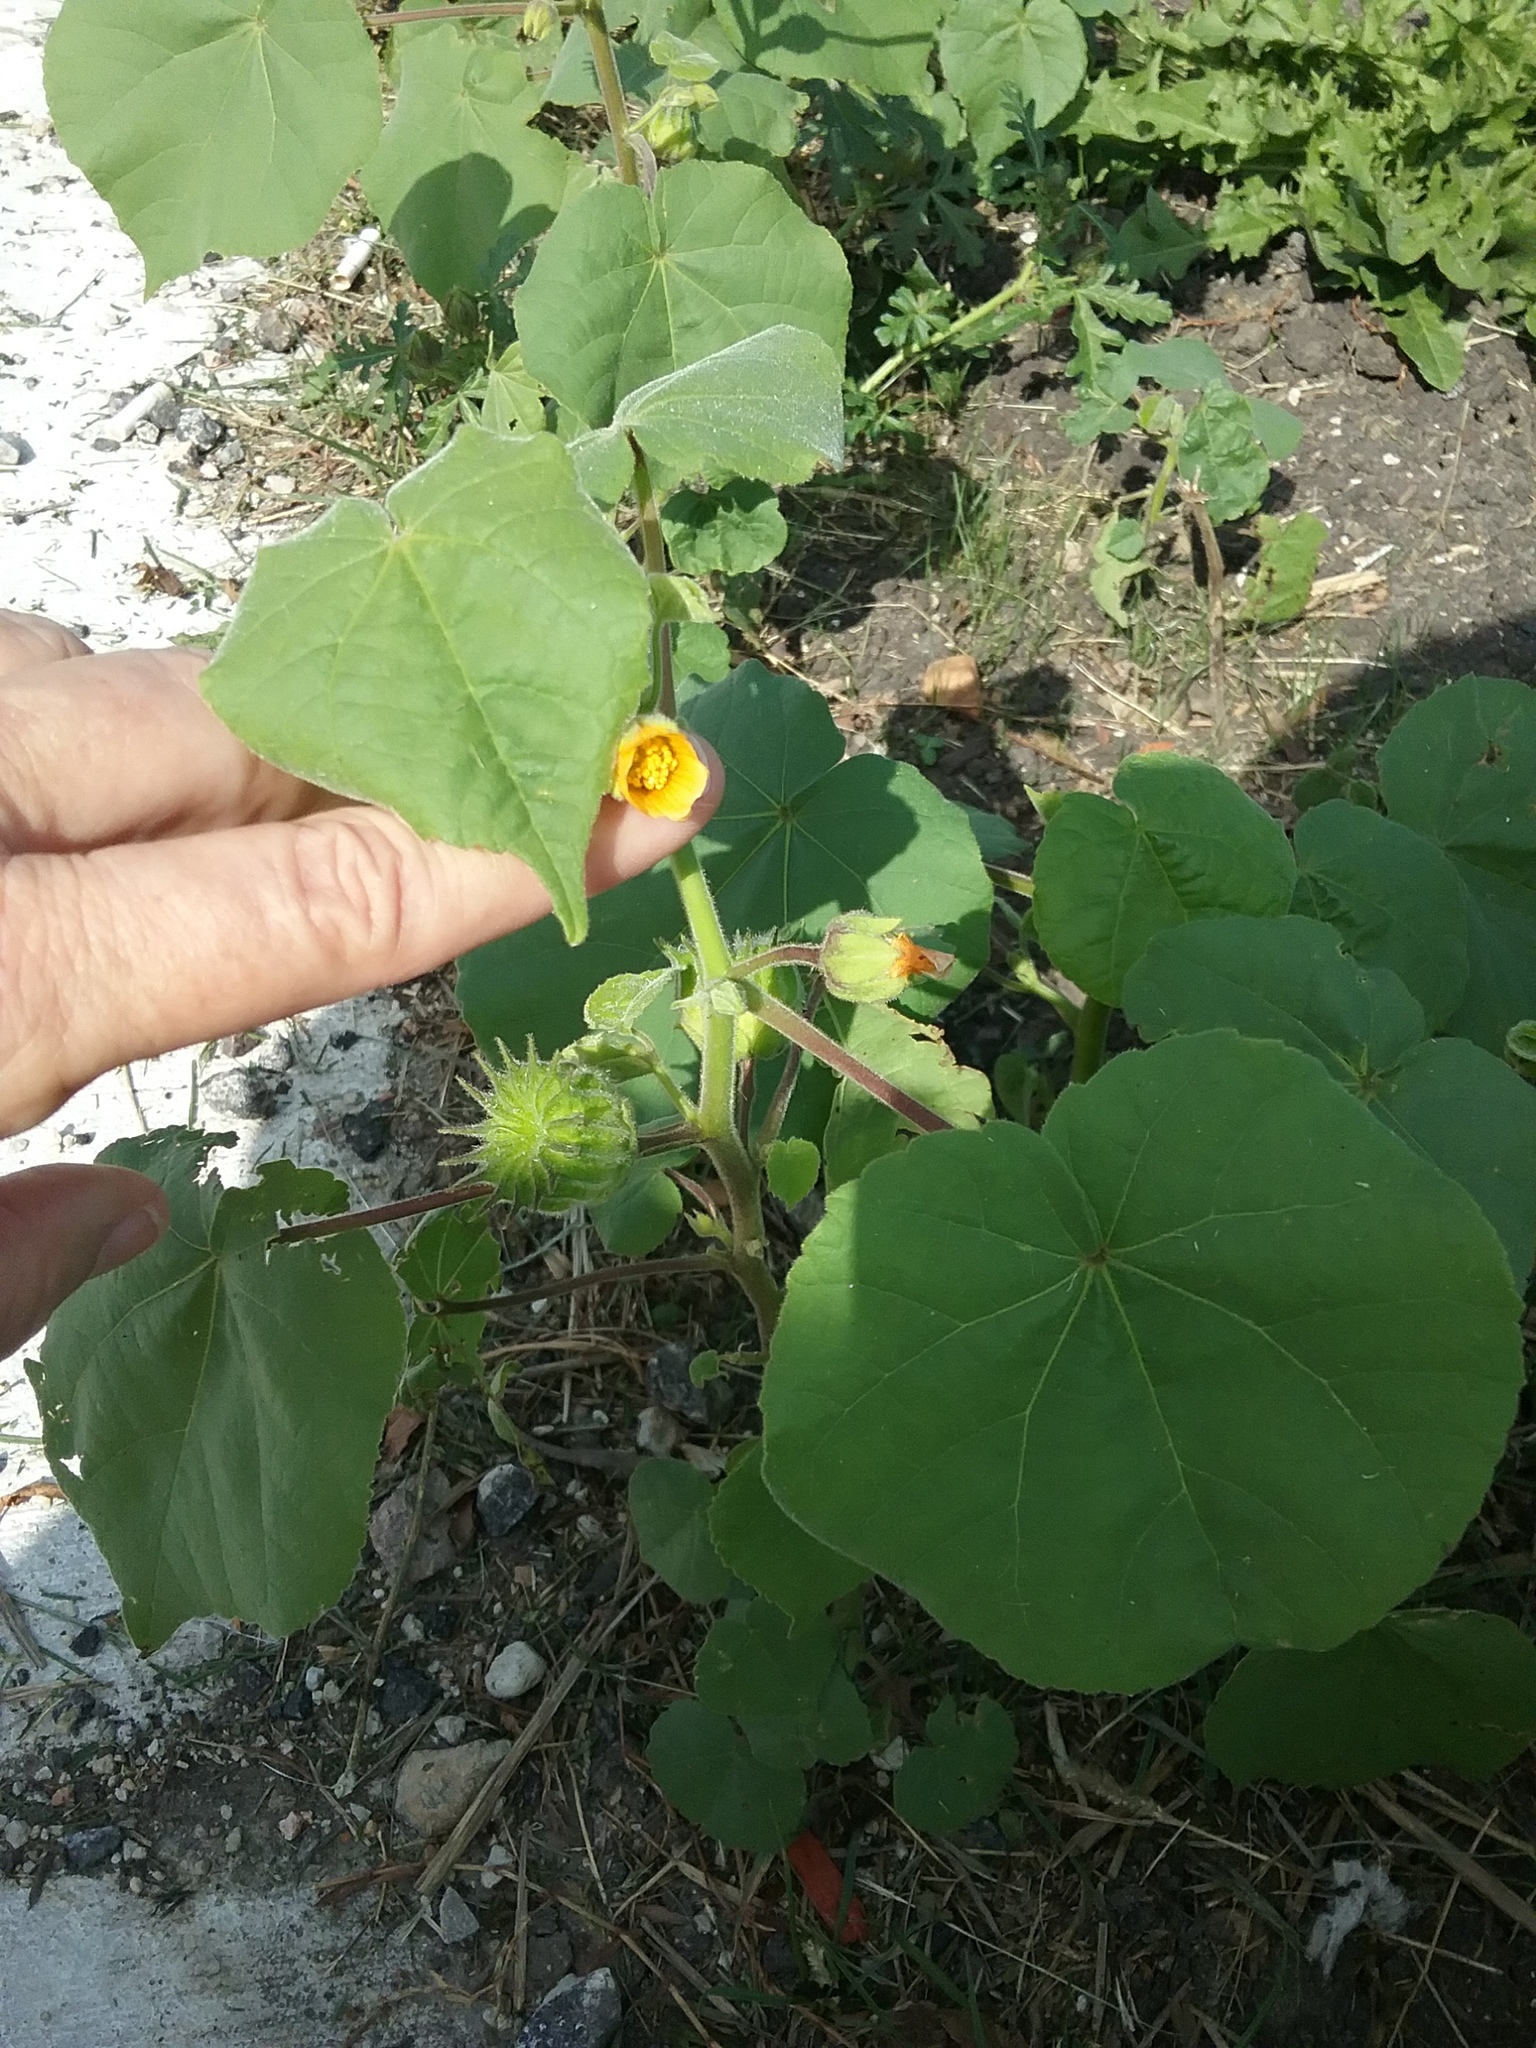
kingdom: Plantae
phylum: Tracheophyta
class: Magnoliopsida
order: Malvales
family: Malvaceae
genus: Abutilon
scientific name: Abutilon theophrasti
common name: Velvetleaf
